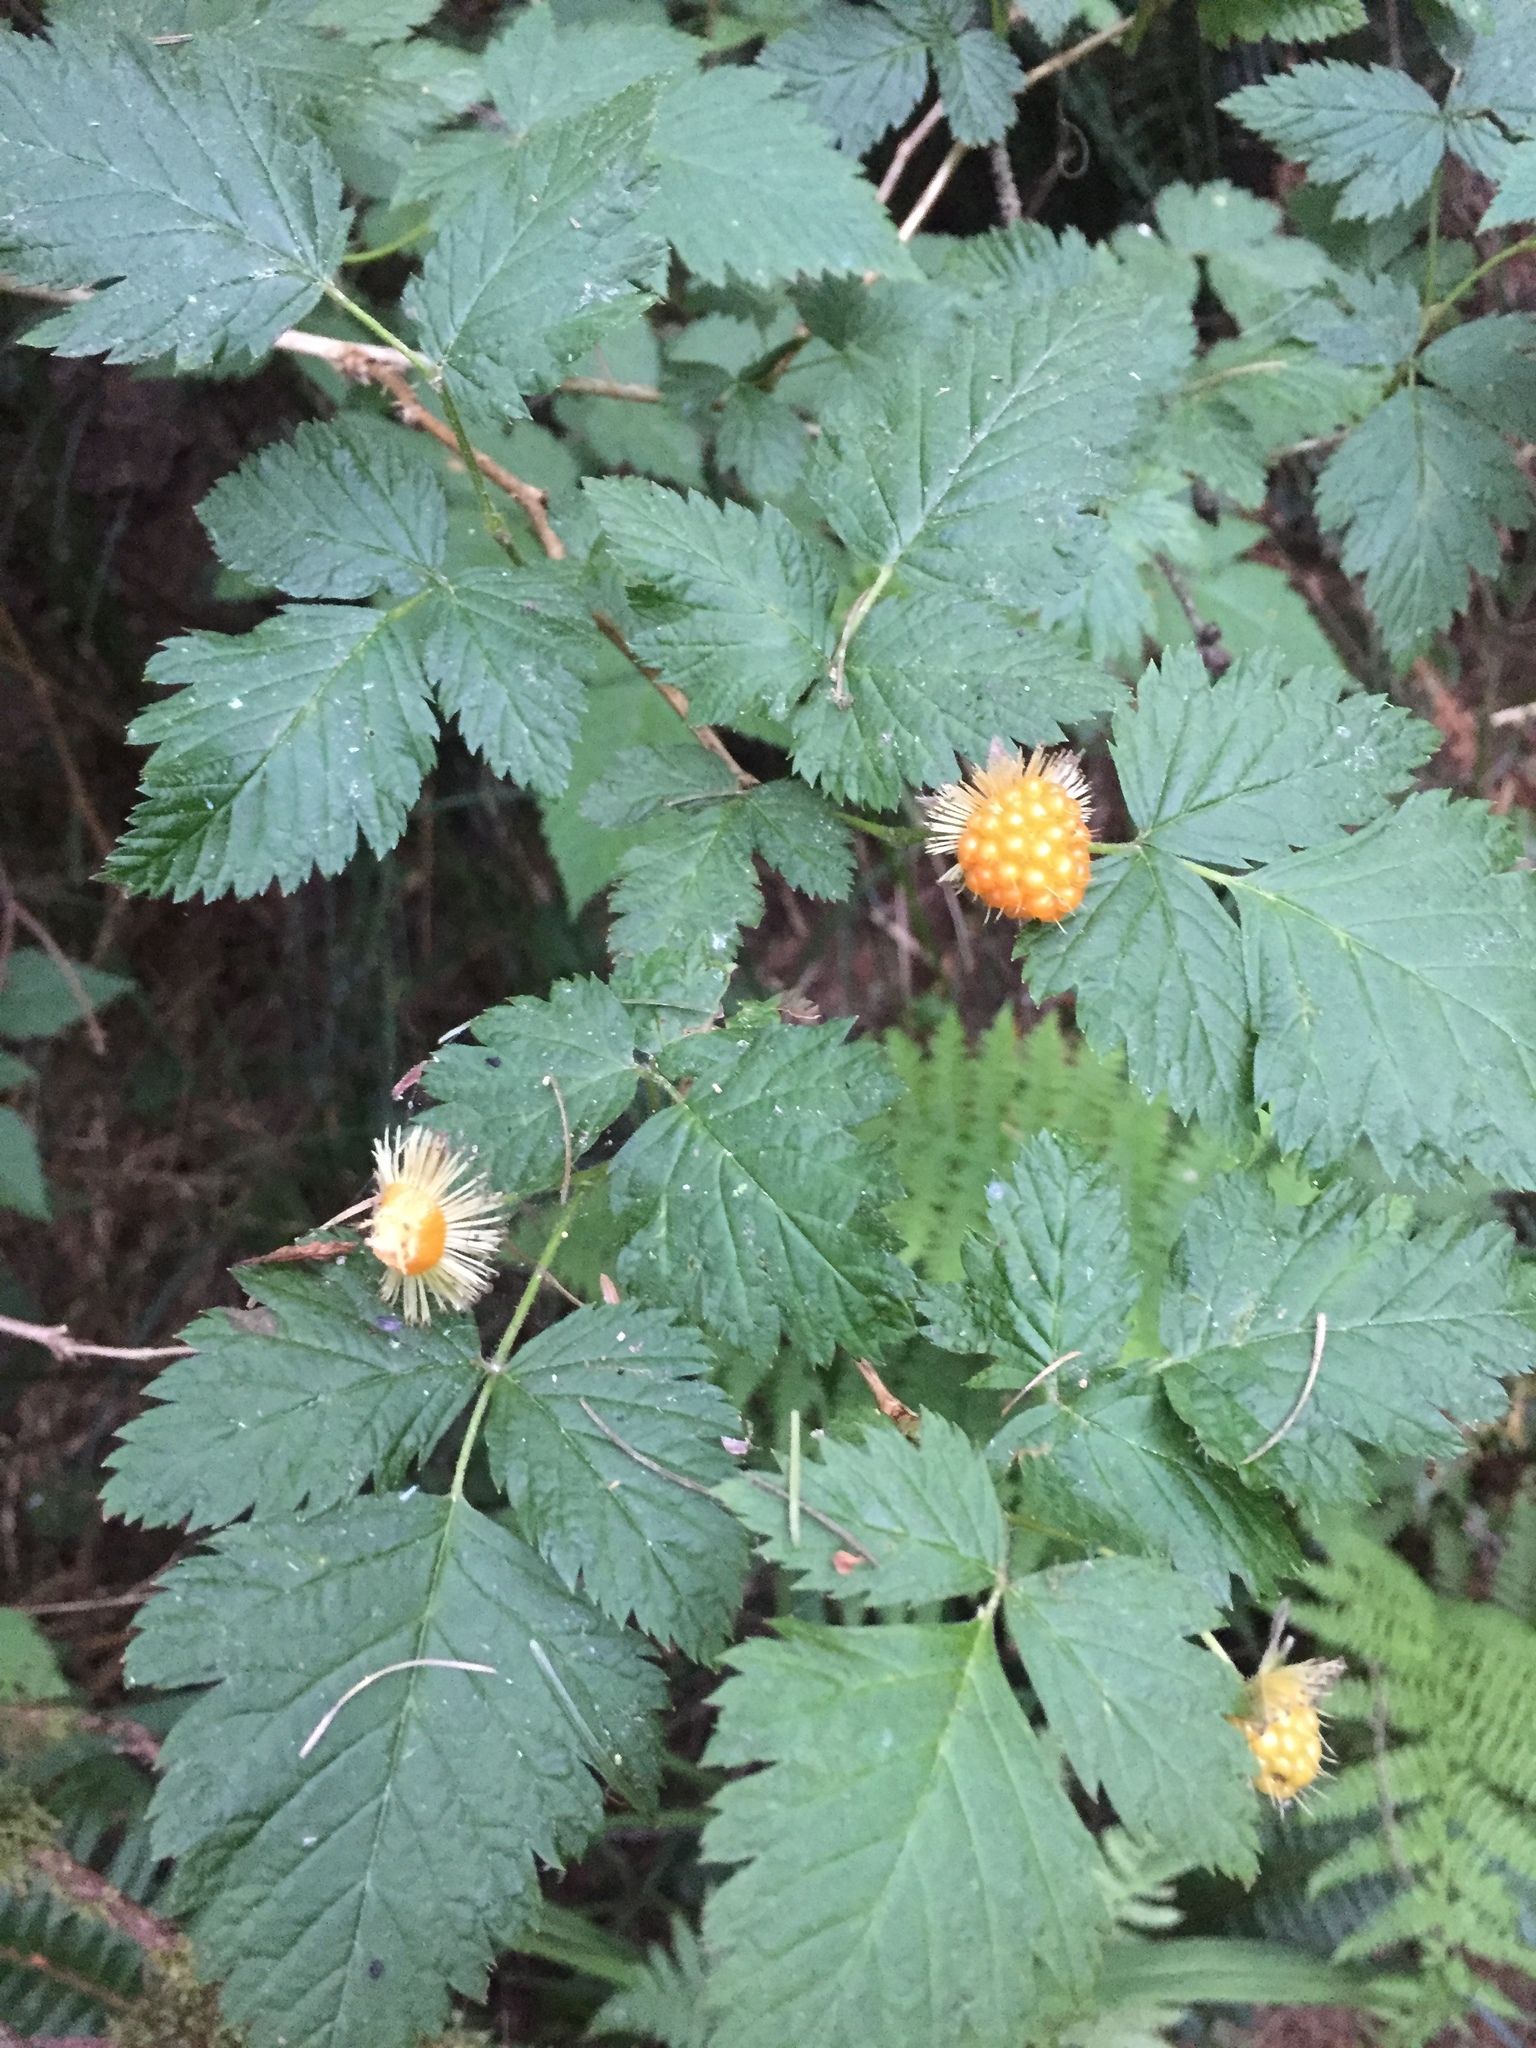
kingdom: Plantae
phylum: Tracheophyta
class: Magnoliopsida
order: Rosales
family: Rosaceae
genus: Rubus
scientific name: Rubus spectabilis
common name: Salmonberry
